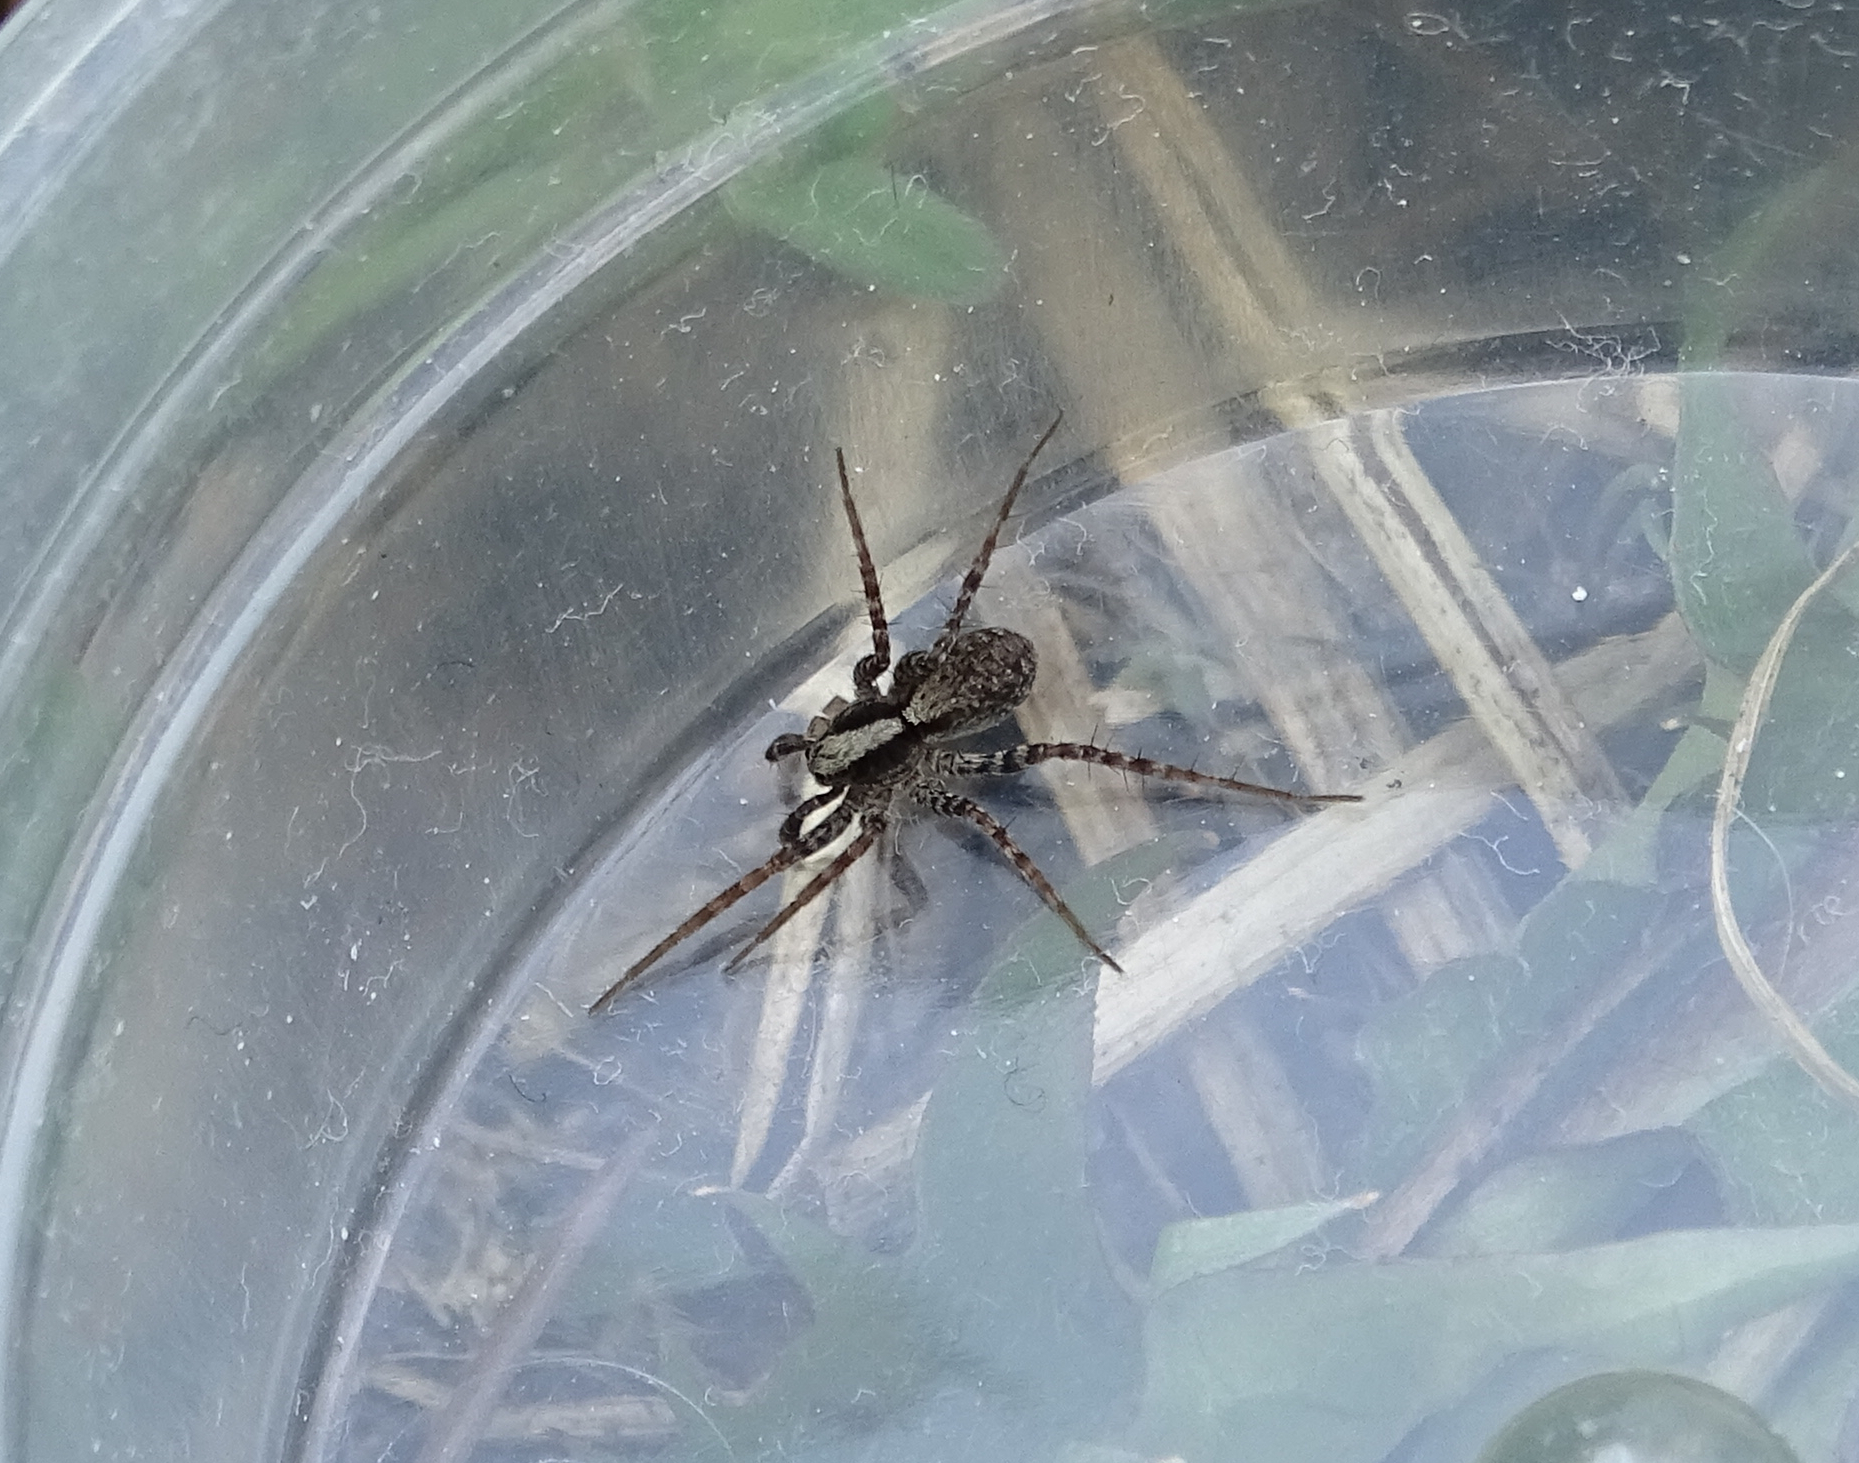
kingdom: Animalia
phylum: Arthropoda
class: Arachnida
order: Araneae
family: Lycosidae
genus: Pardosa
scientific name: Pardosa
